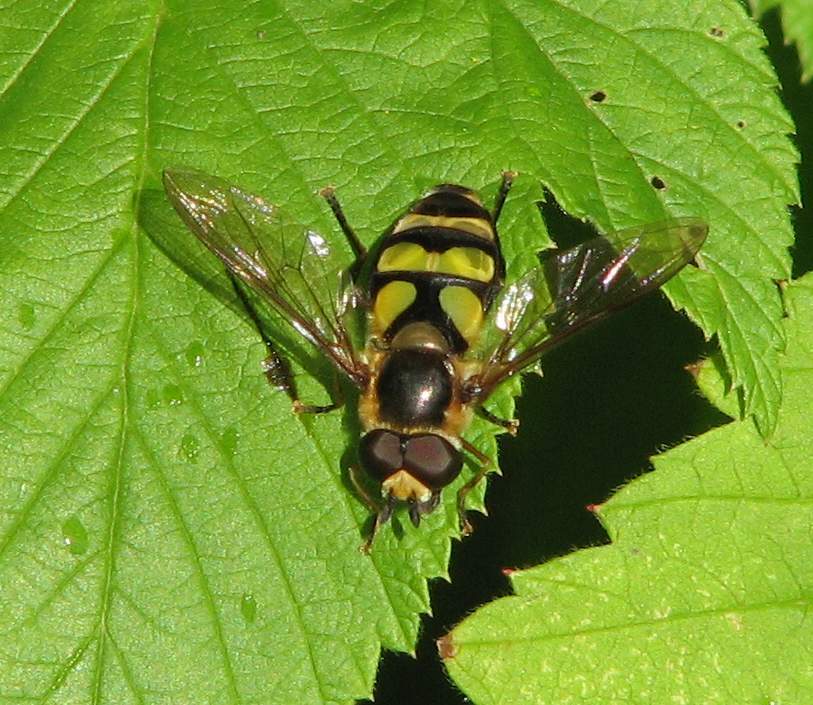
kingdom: Animalia
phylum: Arthropoda
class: Insecta
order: Diptera
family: Syrphidae
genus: Didea
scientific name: Didea fuscipes
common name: Undivided lucent
